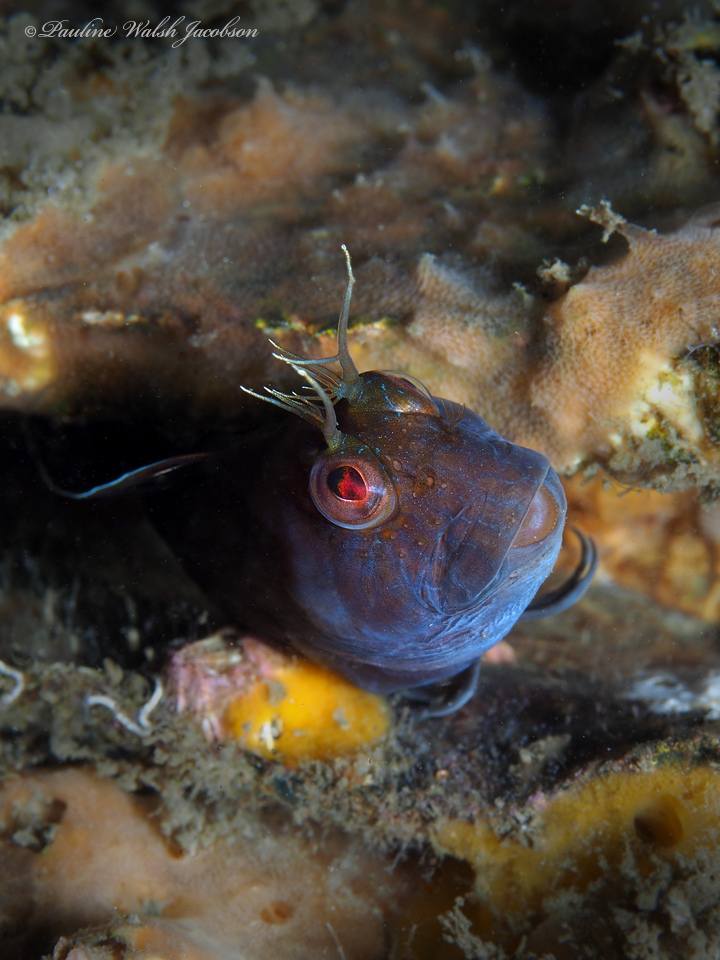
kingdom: Animalia
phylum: Chordata
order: Perciformes
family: Blenniidae
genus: Parablennius
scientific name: Parablennius marmoreus
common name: Seaweed blenny
